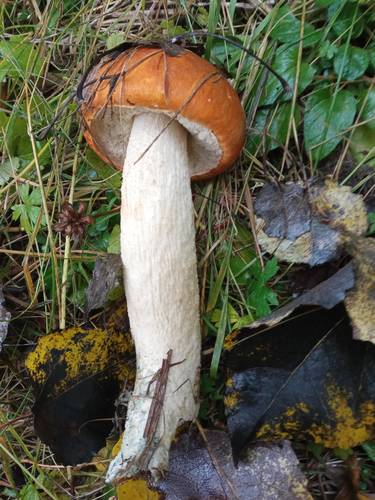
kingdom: Fungi
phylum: Basidiomycota
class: Agaricomycetes
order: Boletales
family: Boletaceae
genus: Leccinum
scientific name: Leccinum albostipitatum
